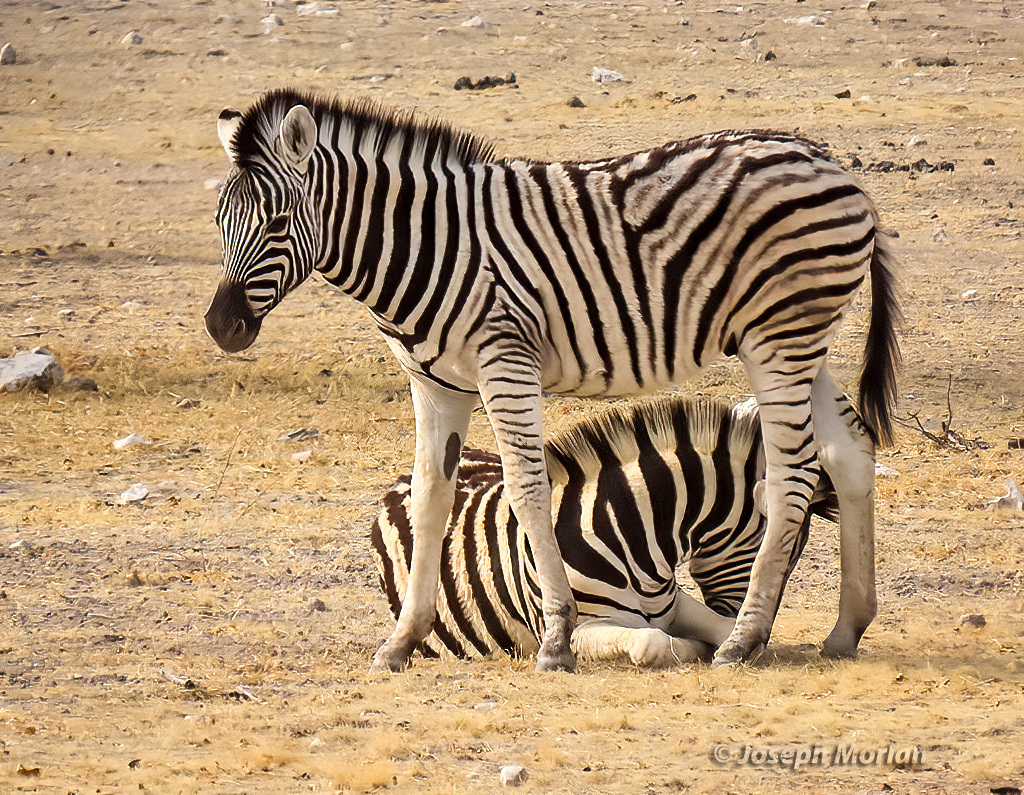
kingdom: Animalia
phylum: Chordata
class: Mammalia
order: Perissodactyla
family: Equidae
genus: Equus
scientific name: Equus quagga
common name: Plains zebra
